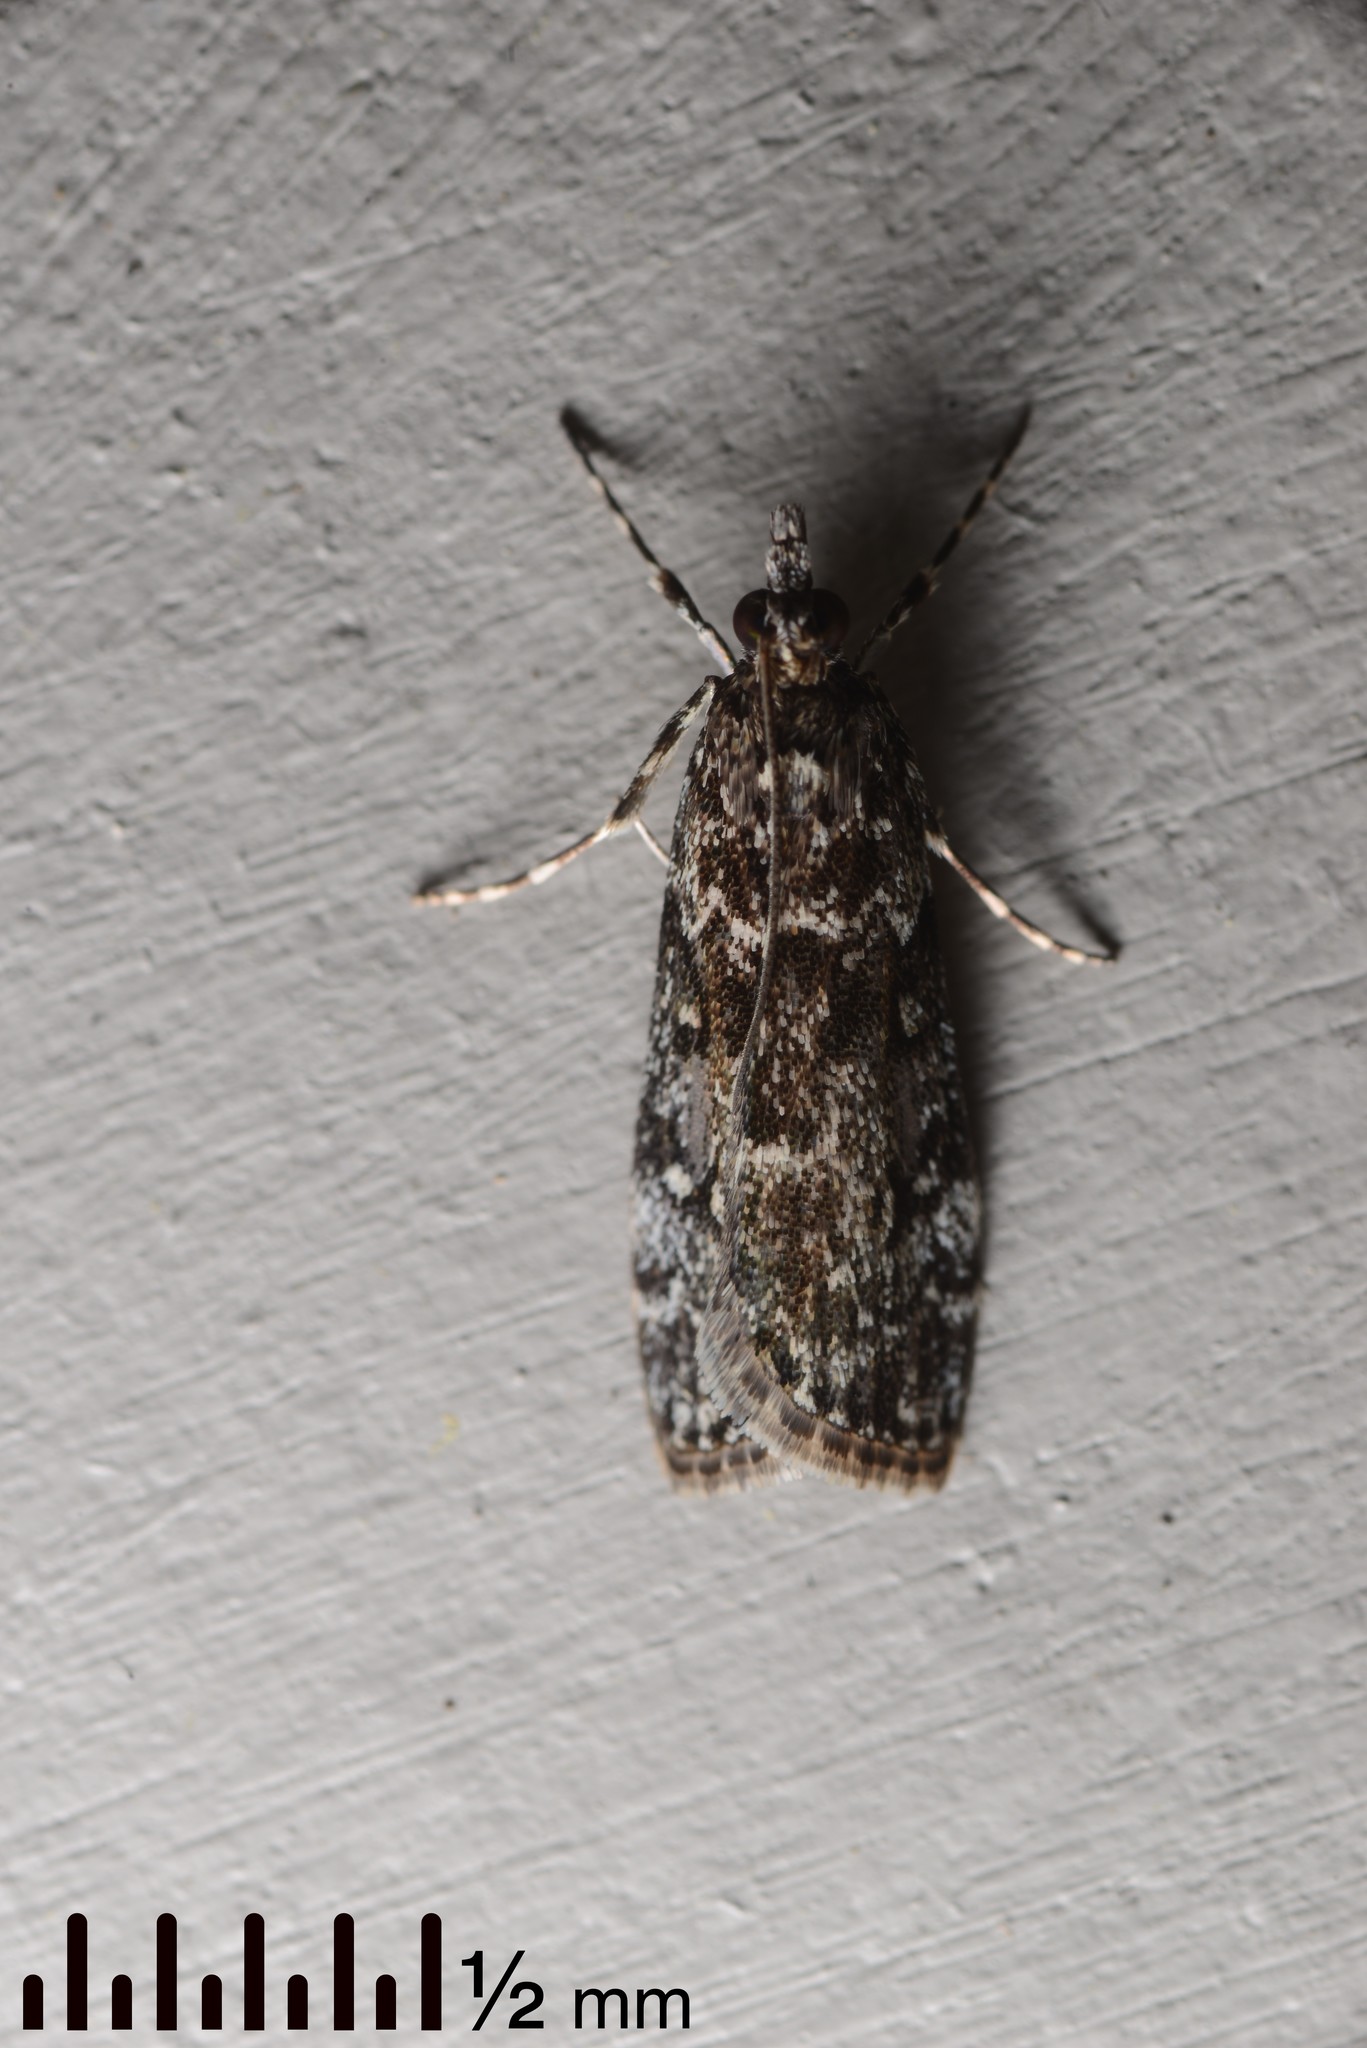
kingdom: Animalia
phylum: Arthropoda
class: Insecta
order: Lepidoptera
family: Crambidae
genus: Eudonia
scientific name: Eudonia philerga
